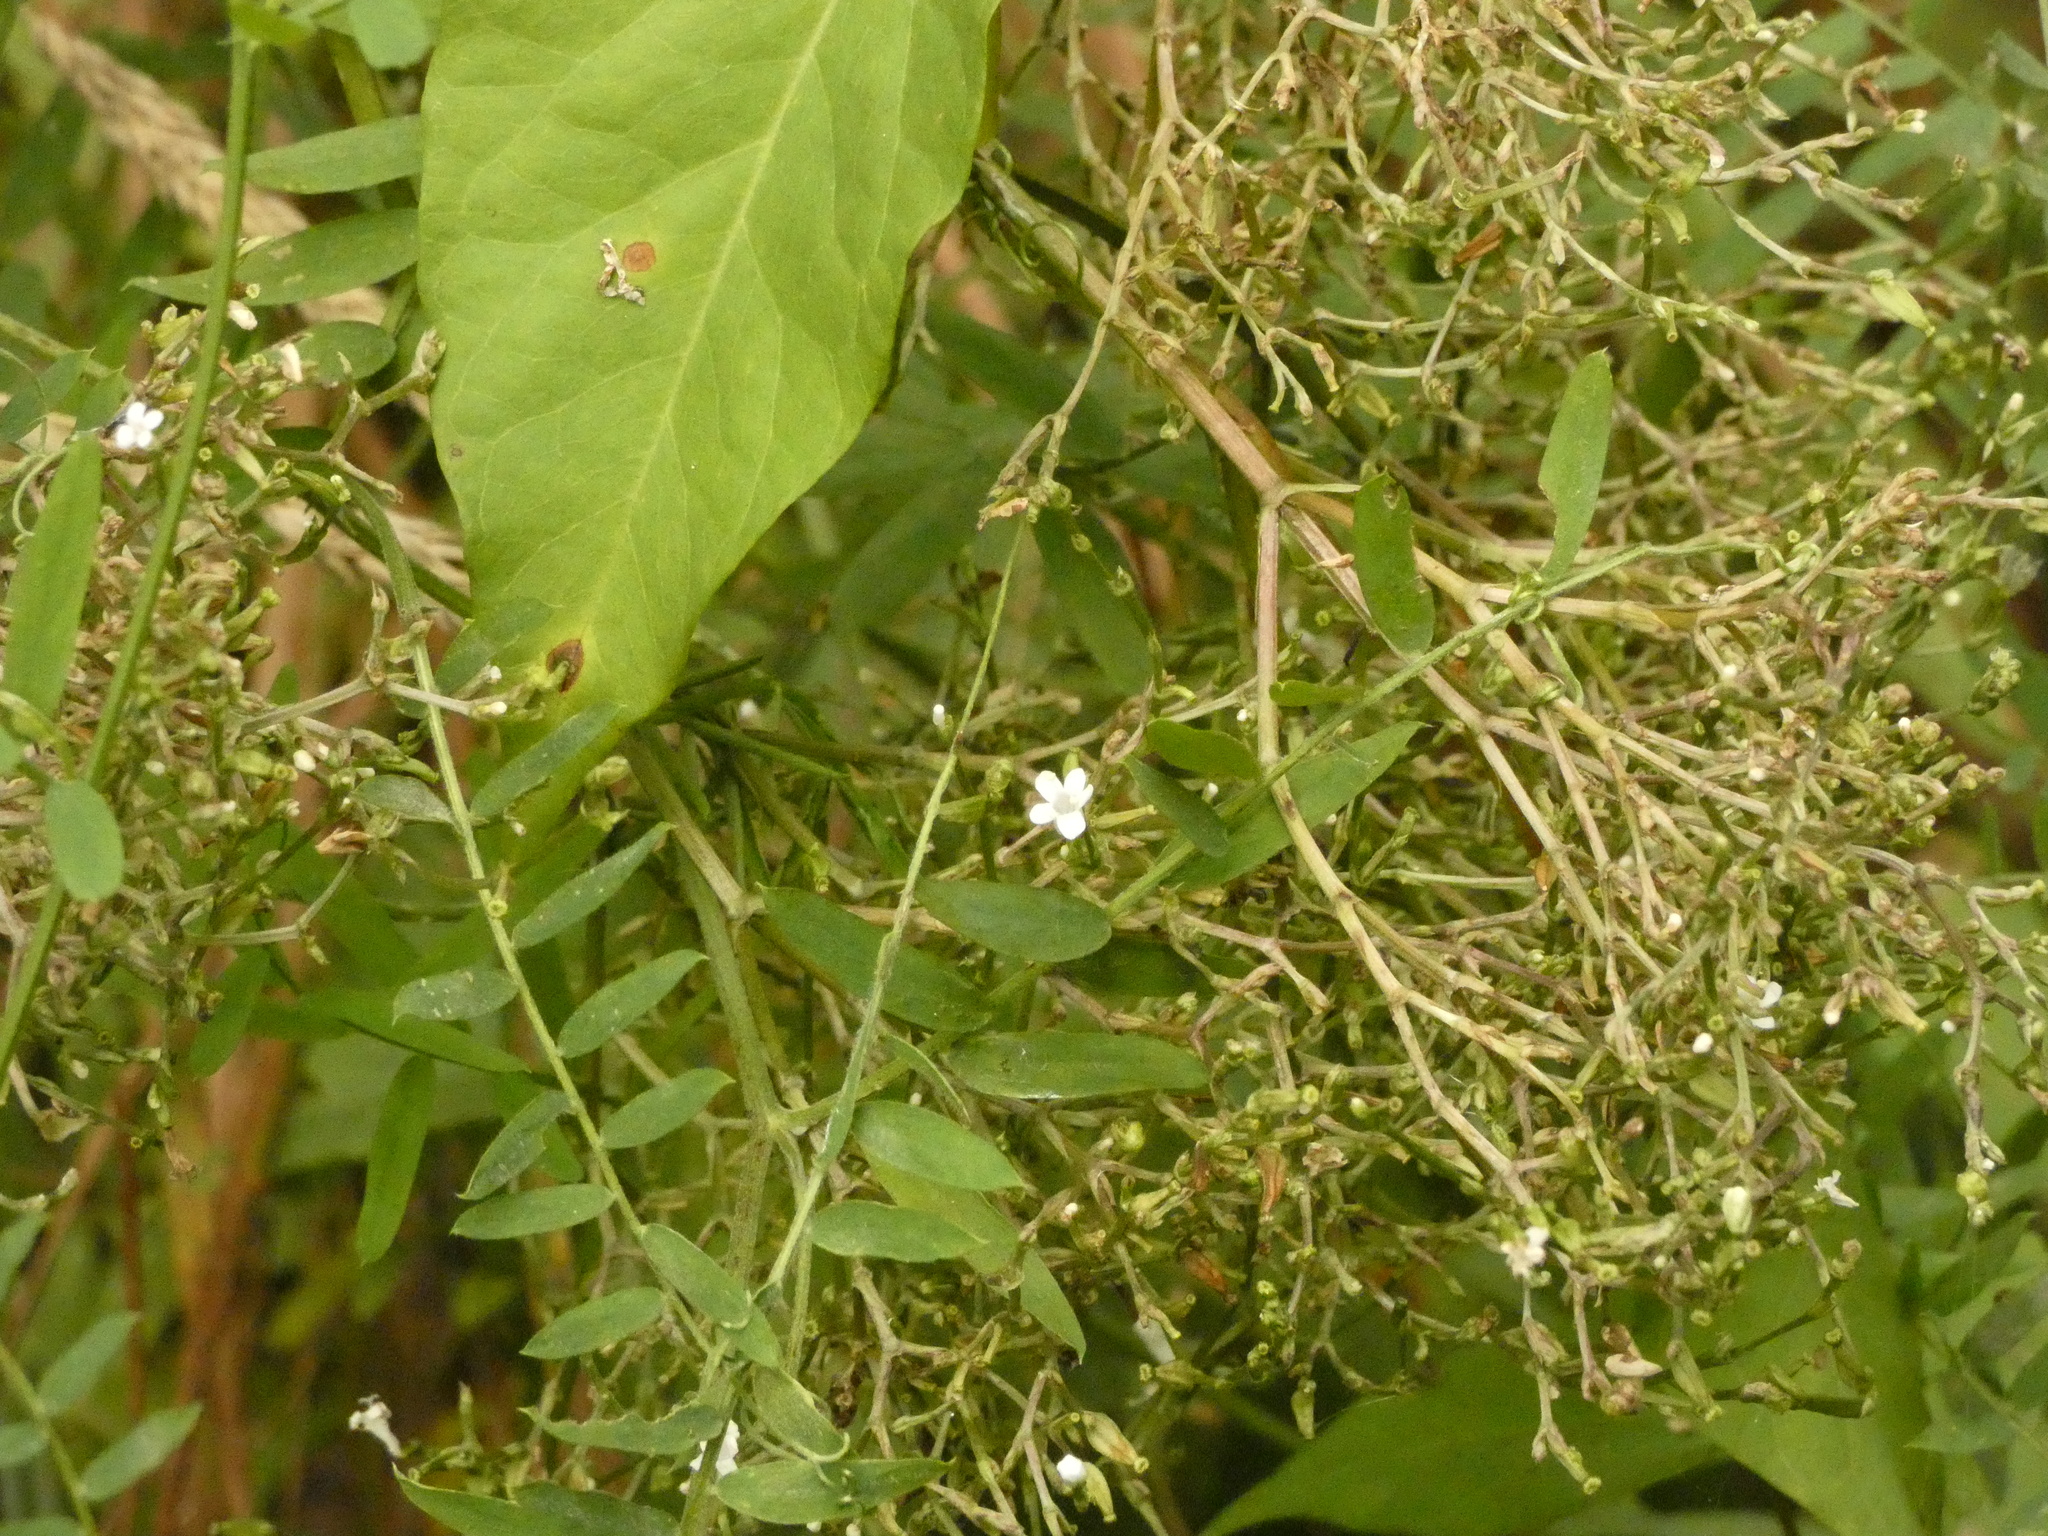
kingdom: Plantae
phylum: Tracheophyta
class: Magnoliopsida
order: Fabales
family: Fabaceae
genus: Vicia
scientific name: Vicia cracca
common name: Bird vetch
